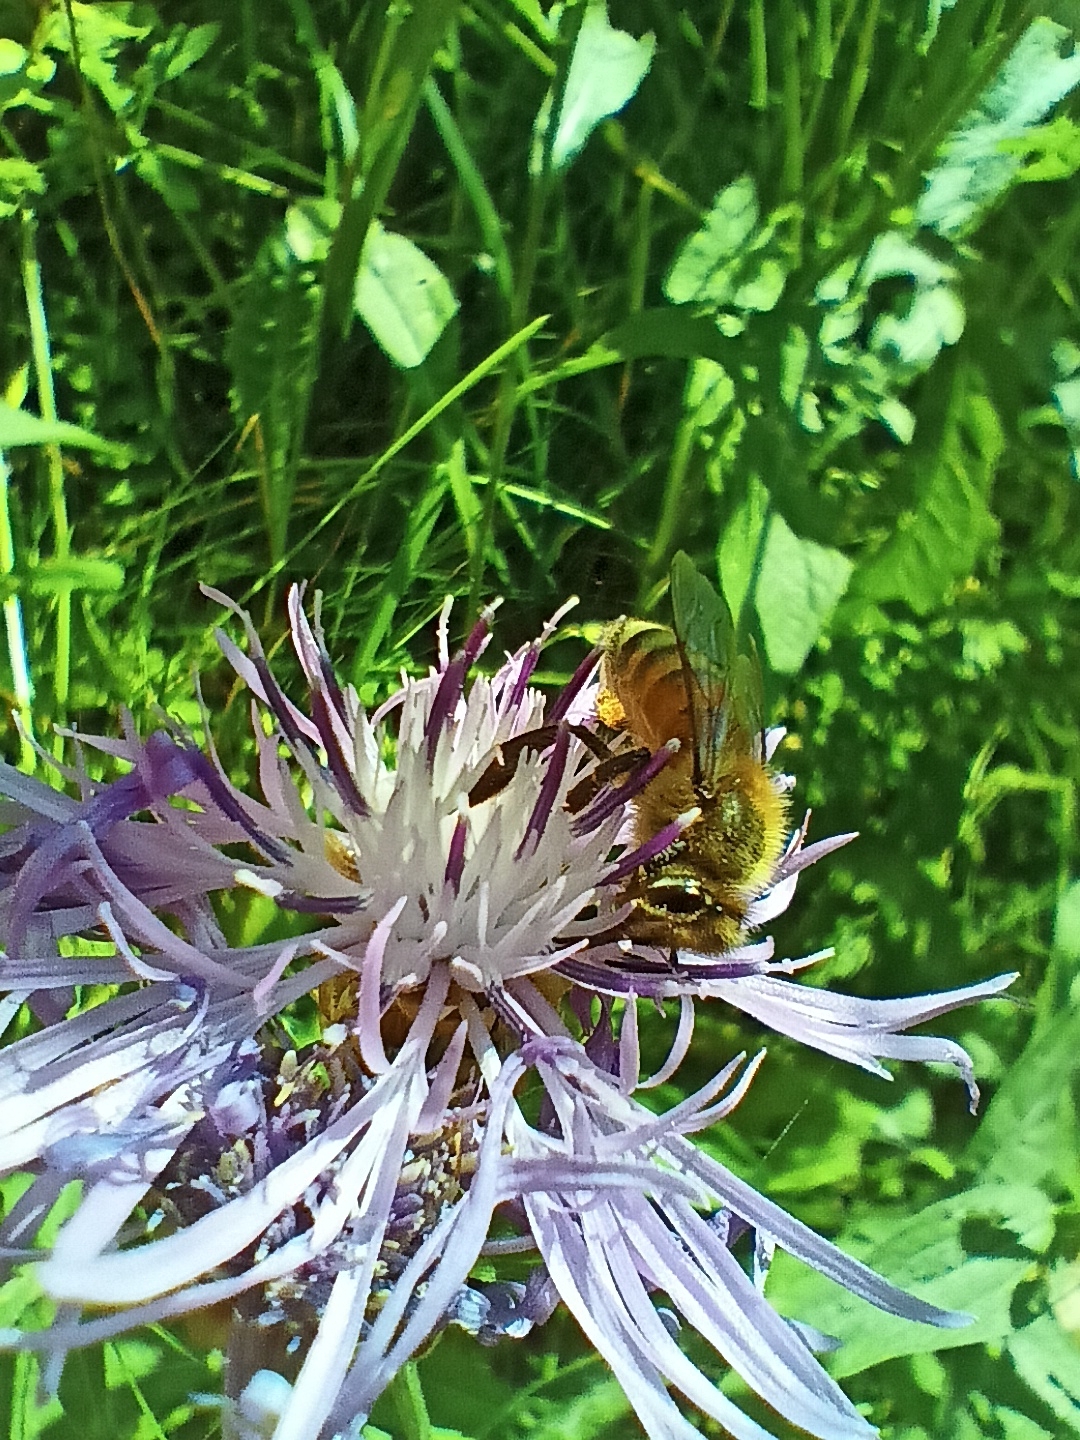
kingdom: Animalia
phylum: Arthropoda
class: Insecta
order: Hymenoptera
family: Apidae
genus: Apis
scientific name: Apis mellifera
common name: Honey bee
